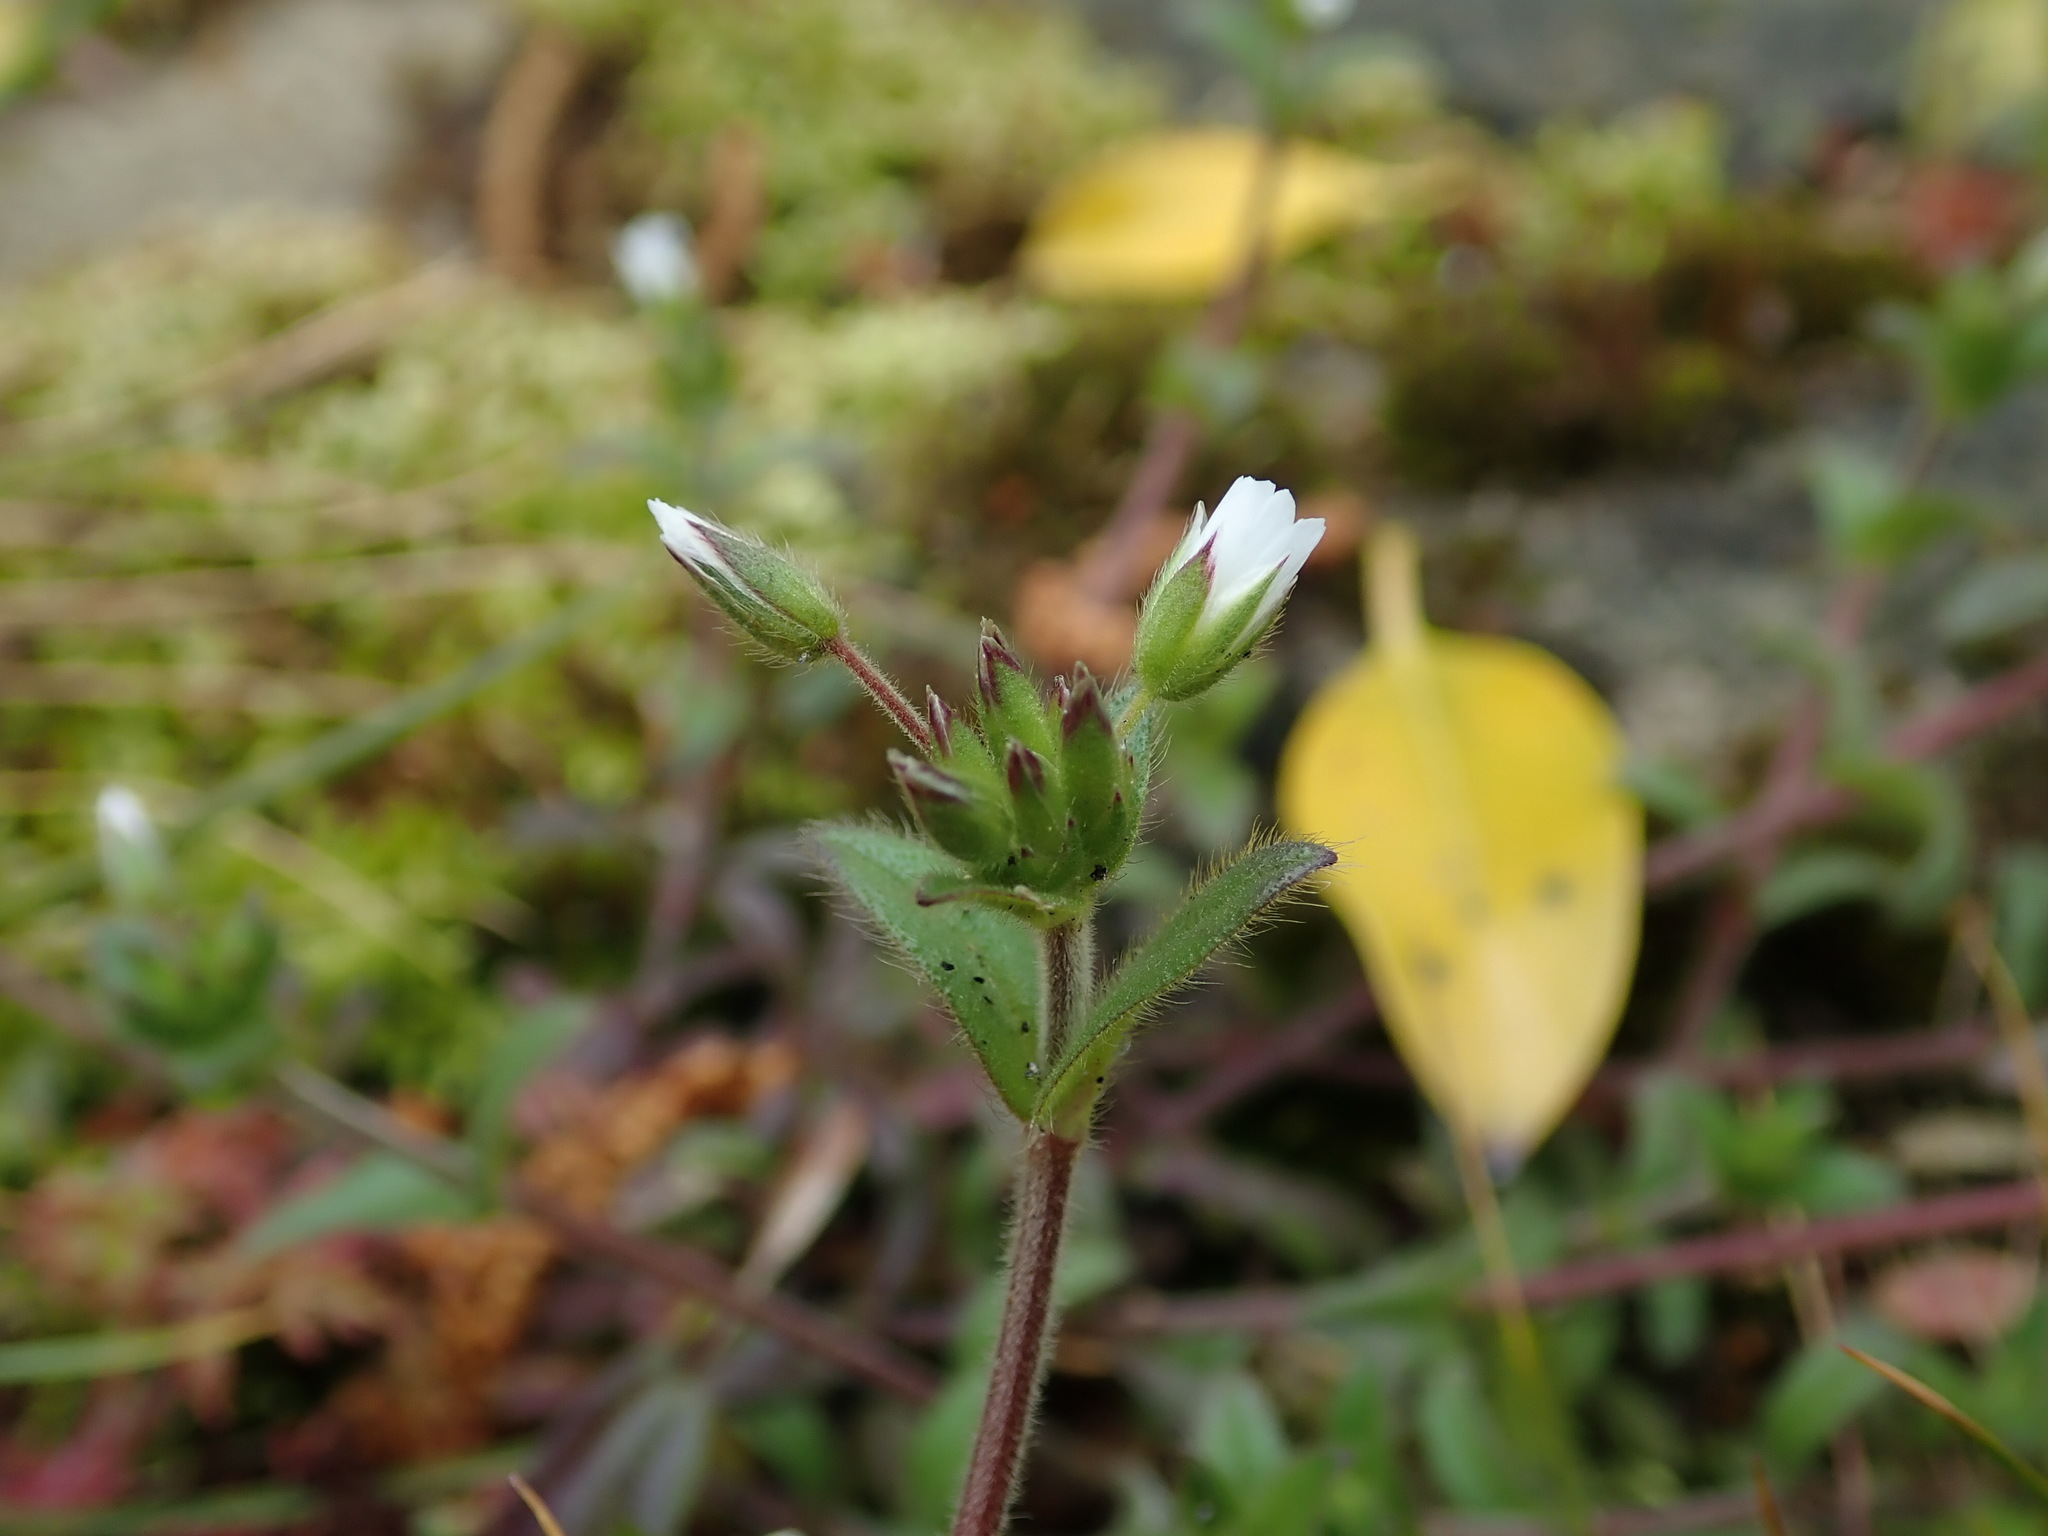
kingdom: Plantae
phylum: Tracheophyta
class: Magnoliopsida
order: Caryophyllales
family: Caryophyllaceae
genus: Cerastium
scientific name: Cerastium fontanum
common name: Common mouse-ear
